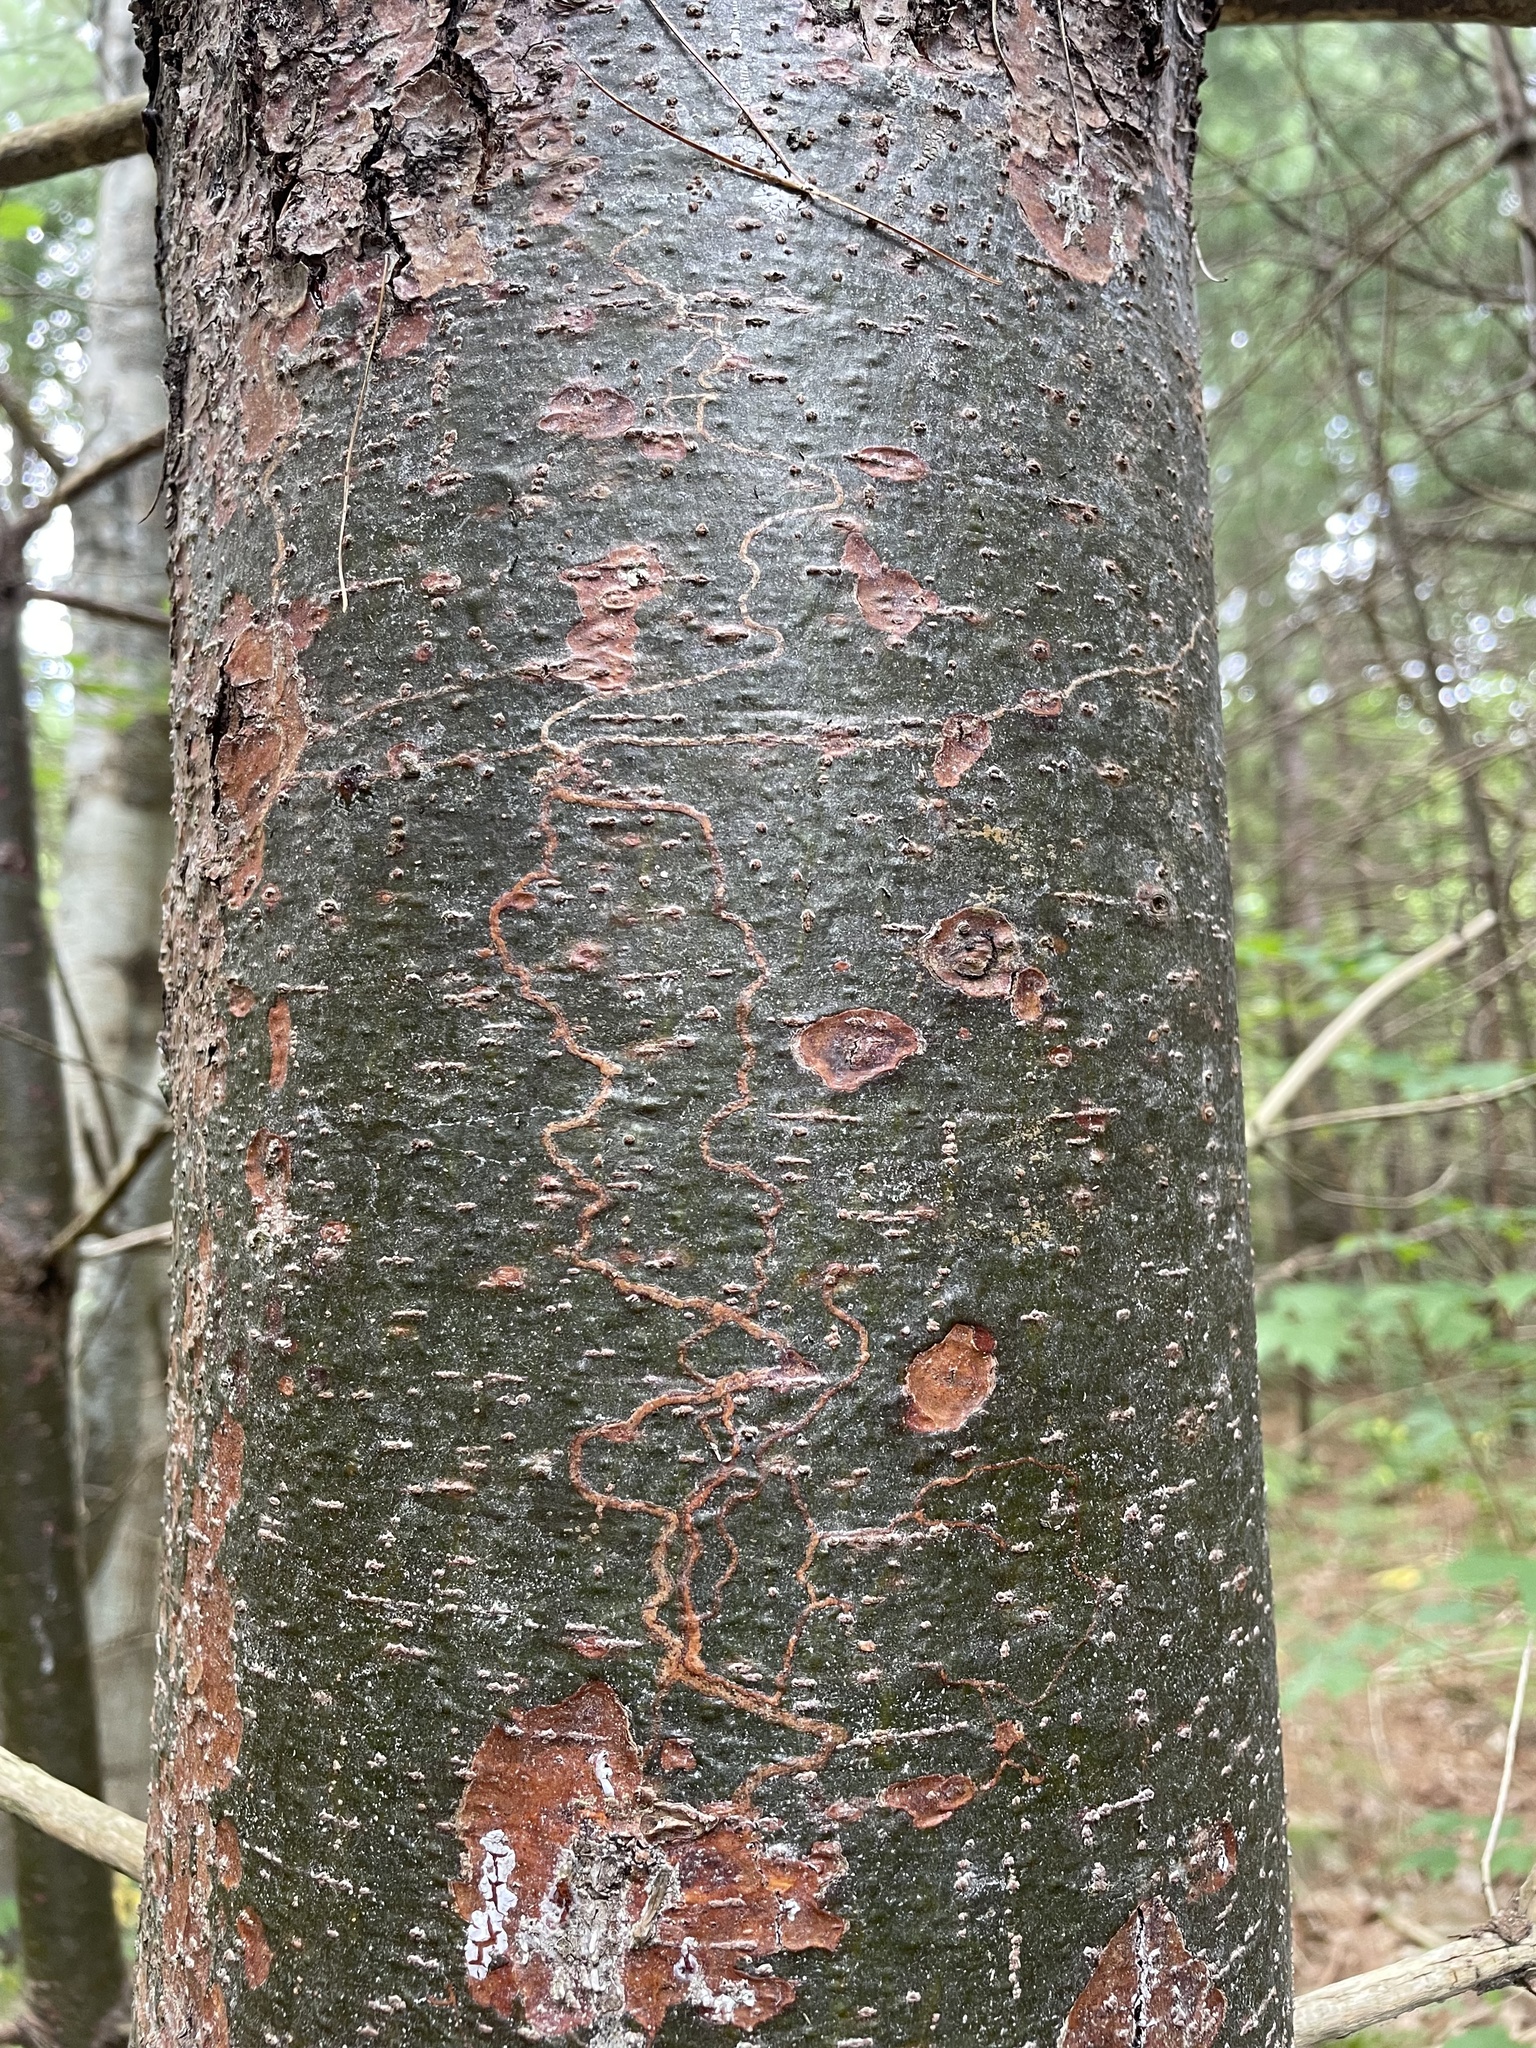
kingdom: Animalia
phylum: Arthropoda
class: Insecta
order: Lepidoptera
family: Gracillariidae
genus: Marmara
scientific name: Marmara fasciella
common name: White pine barkminer moth
